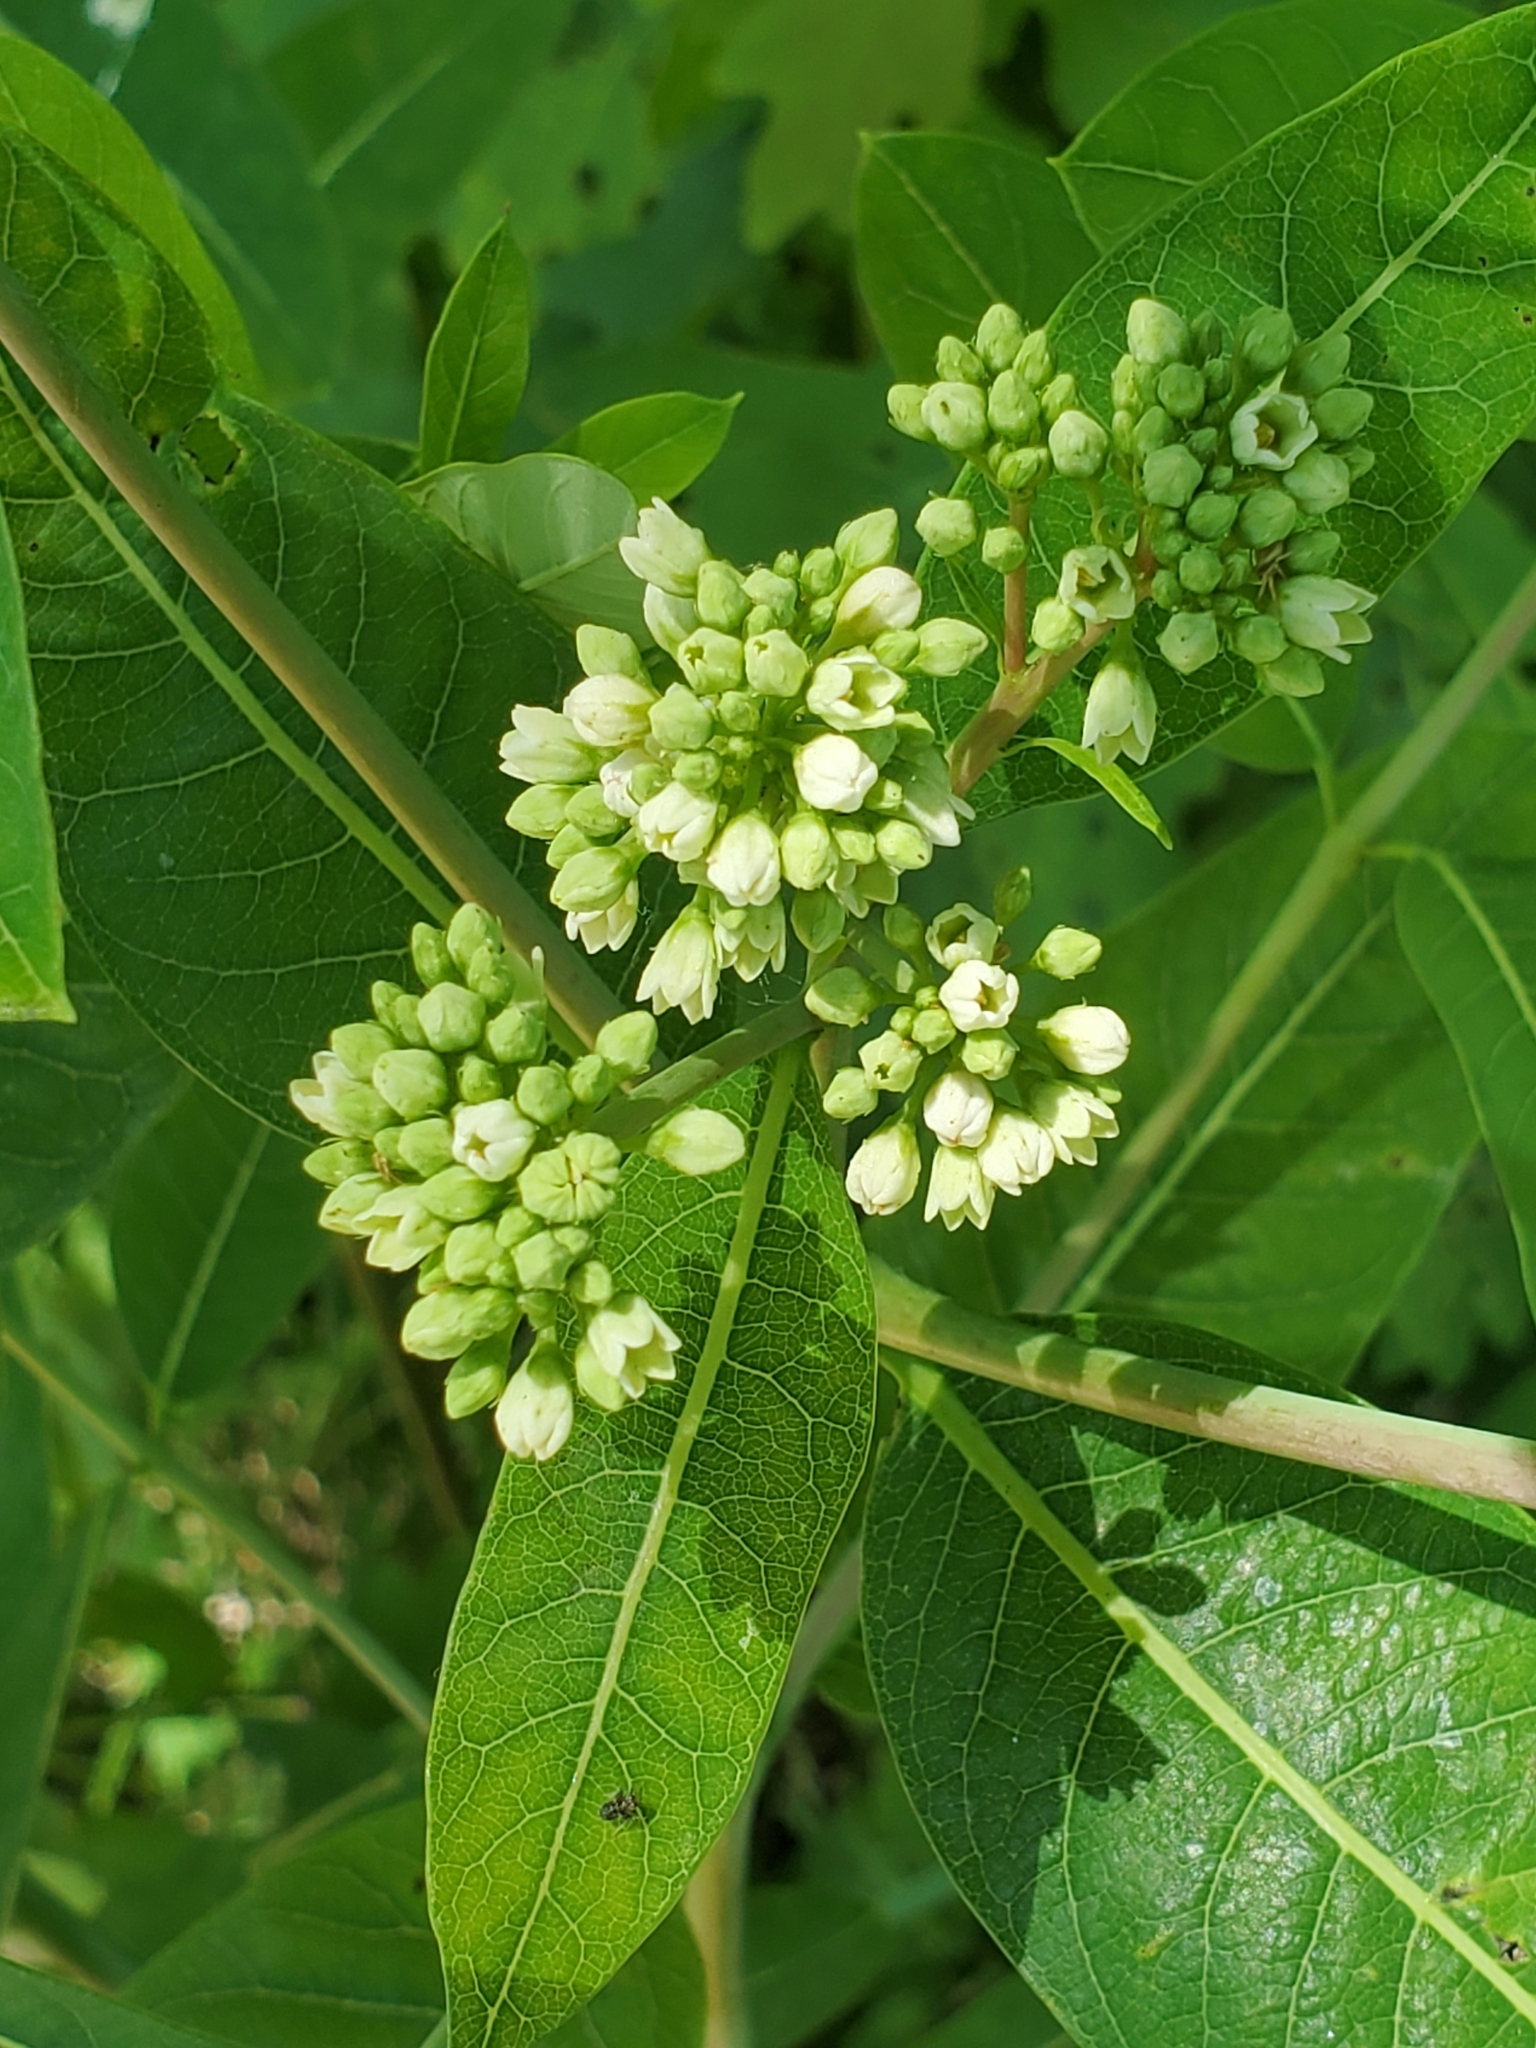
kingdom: Plantae
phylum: Tracheophyta
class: Magnoliopsida
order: Gentianales
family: Apocynaceae
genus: Apocynum
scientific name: Apocynum cannabinum
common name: Hemp dogbane
